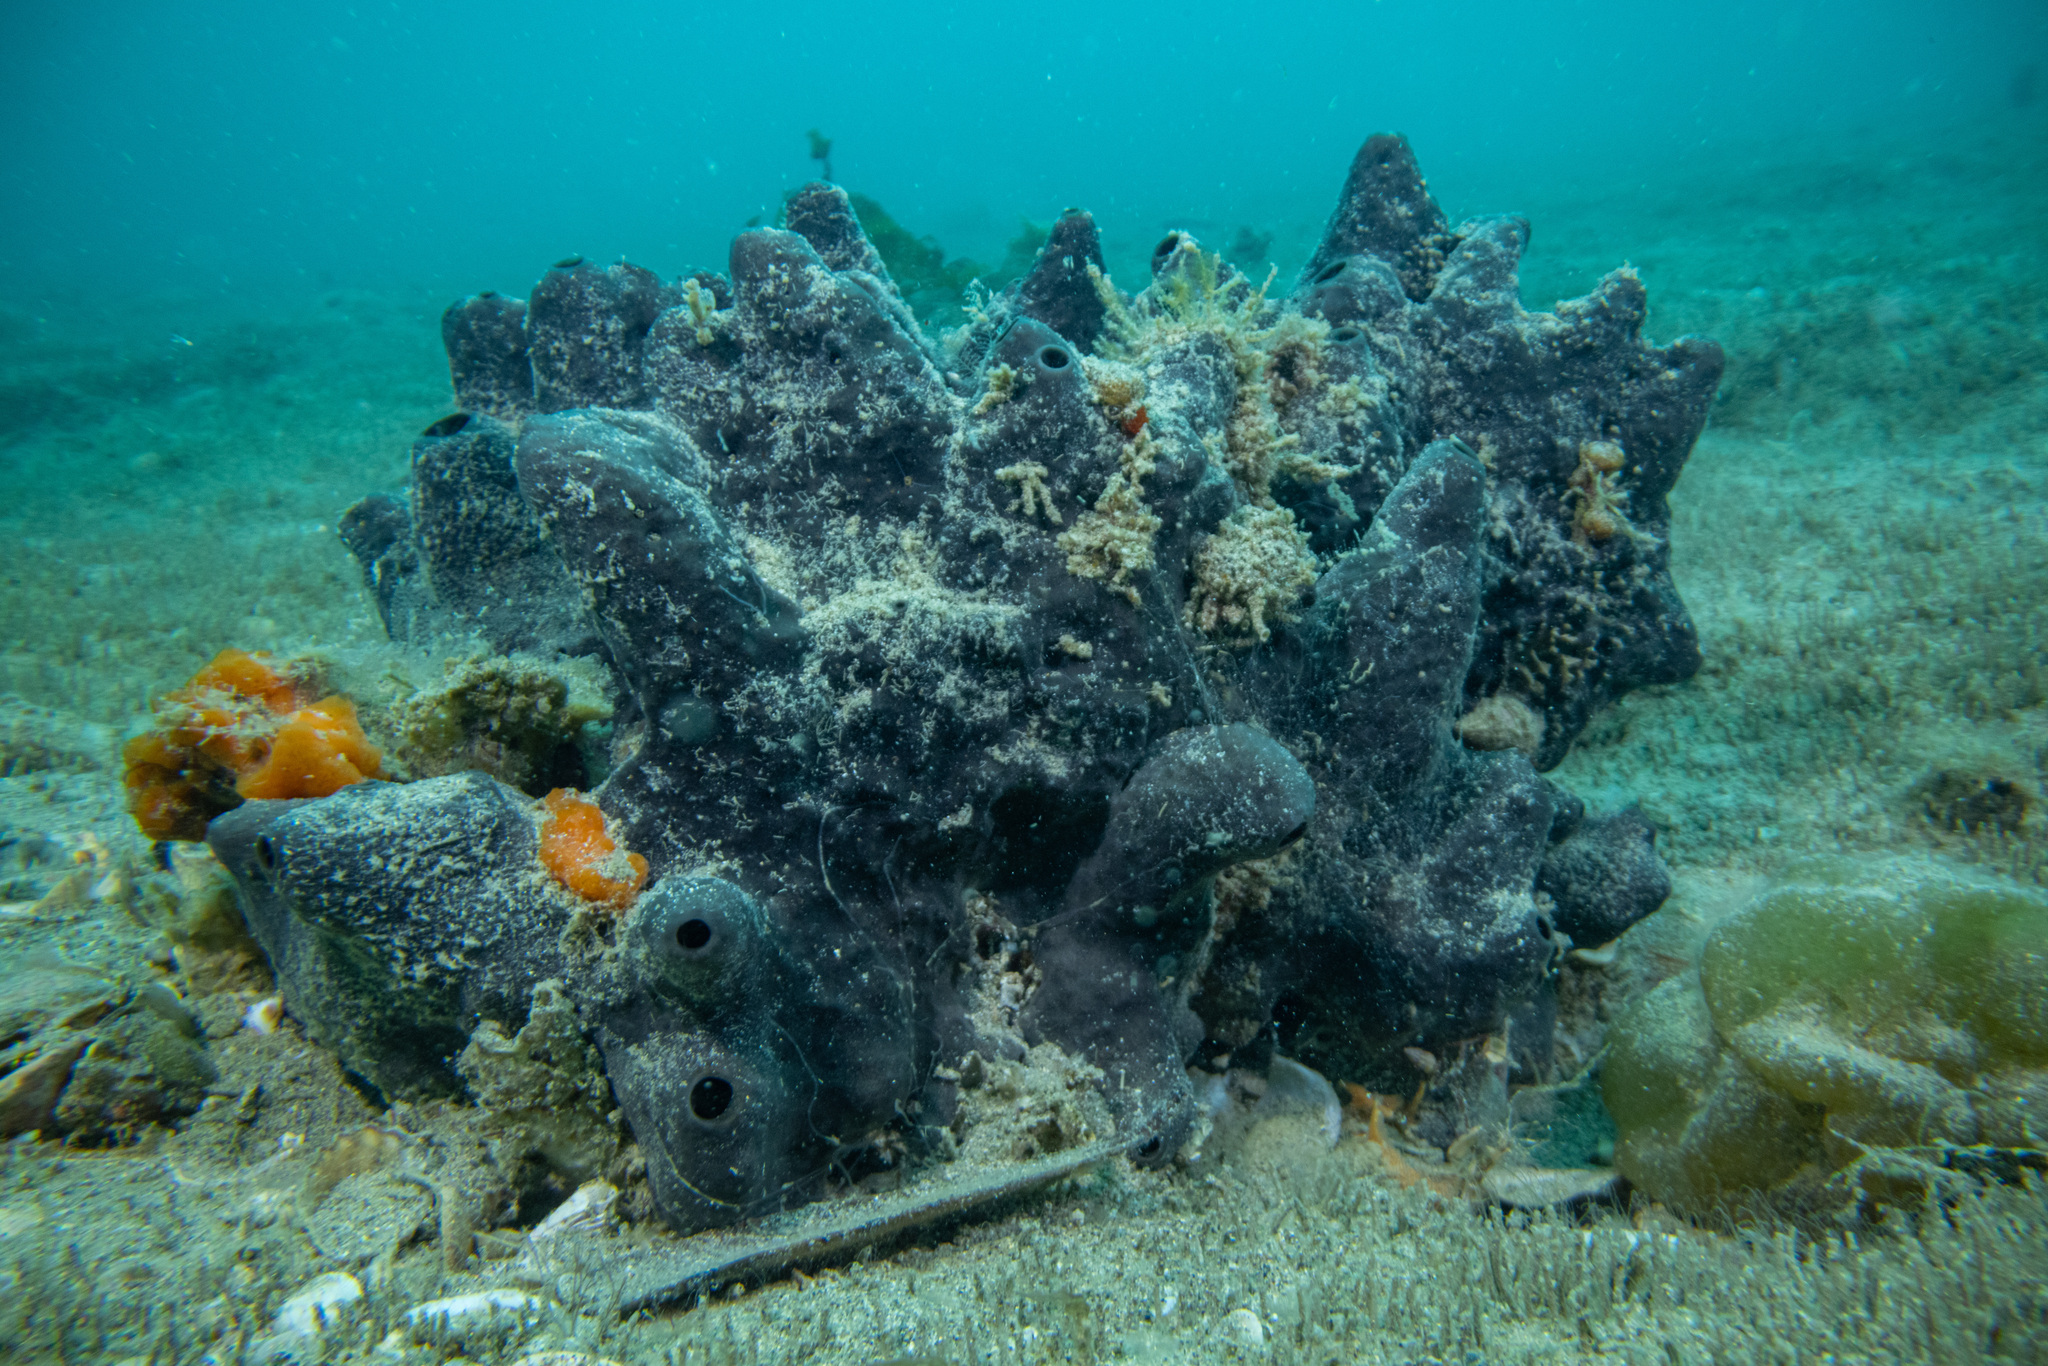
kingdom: Animalia
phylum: Porifera
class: Demospongiae
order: Dictyoceratida
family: Irciniidae
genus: Psammocinia
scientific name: Psammocinia perforodosa
